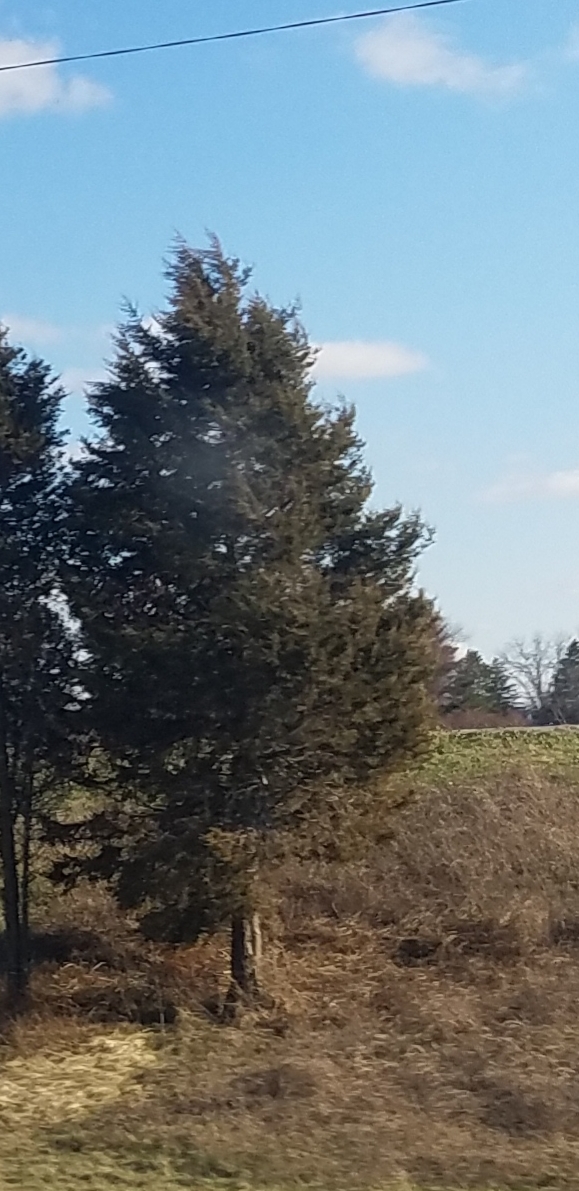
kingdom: Plantae
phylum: Tracheophyta
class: Pinopsida
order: Pinales
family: Cupressaceae
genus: Juniperus
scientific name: Juniperus virginiana
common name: Red juniper
